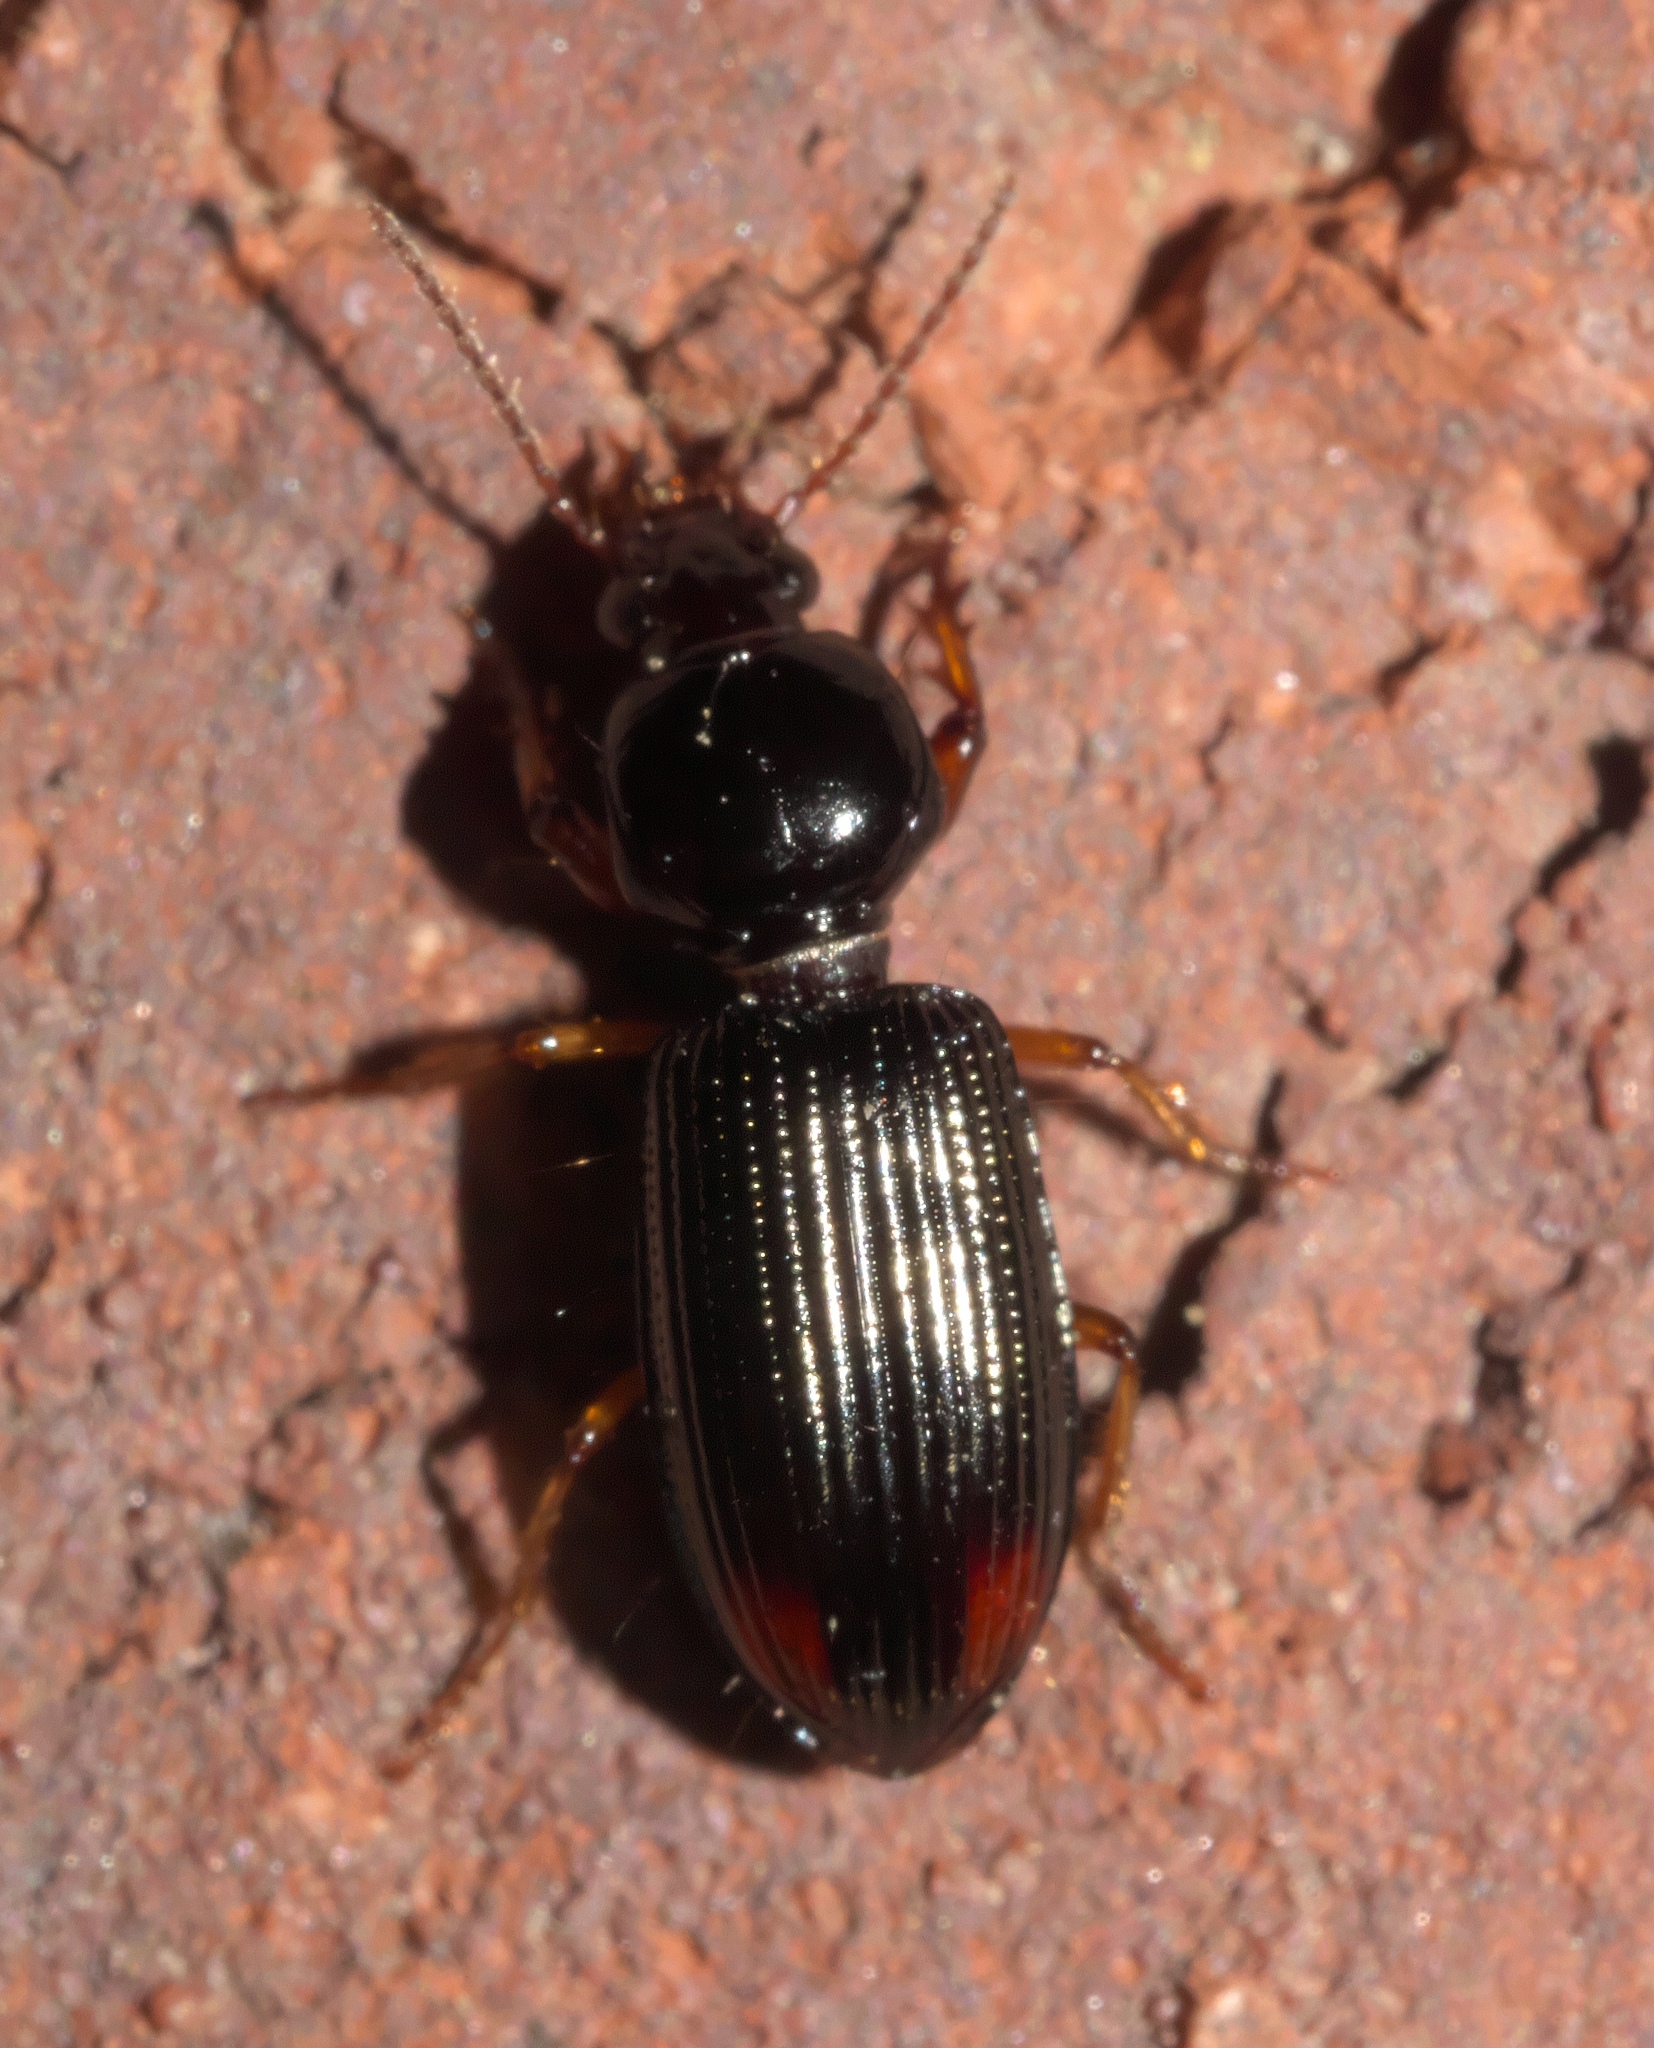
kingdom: Animalia
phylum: Arthropoda
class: Insecta
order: Coleoptera
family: Carabidae
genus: Aspidoglossa
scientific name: Aspidoglossa subangulata
